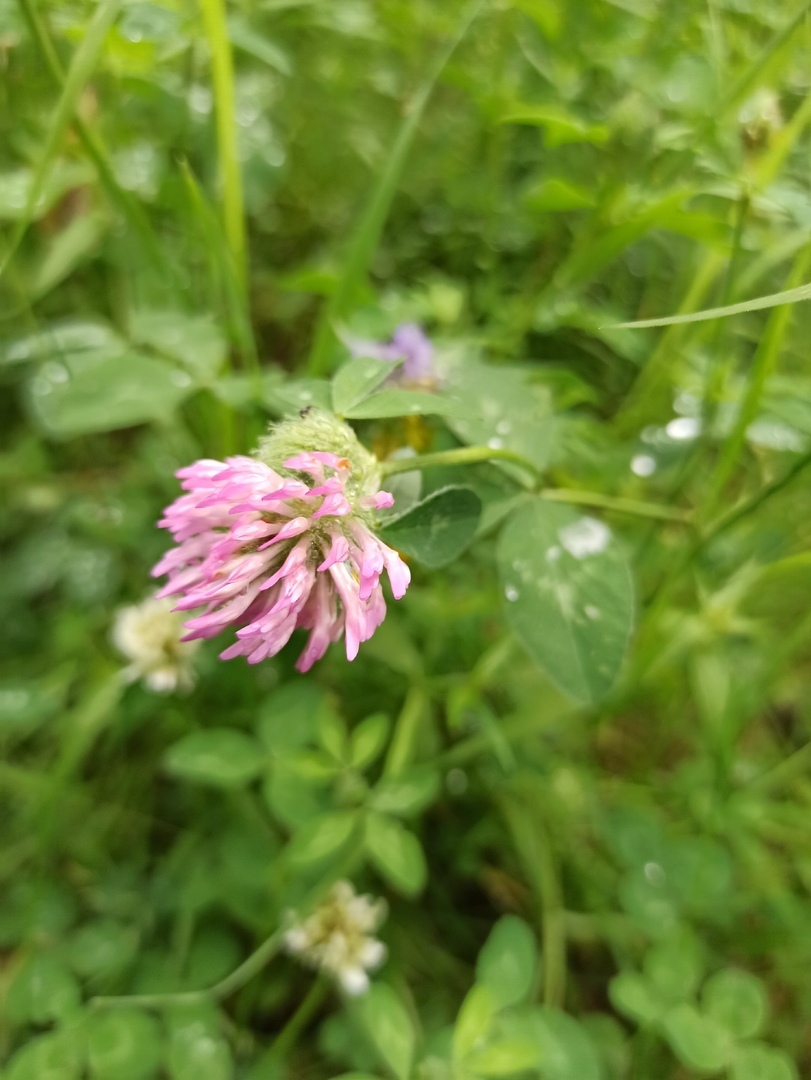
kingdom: Plantae
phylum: Tracheophyta
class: Magnoliopsida
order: Fabales
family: Fabaceae
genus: Trifolium
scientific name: Trifolium pratense
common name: Red clover
